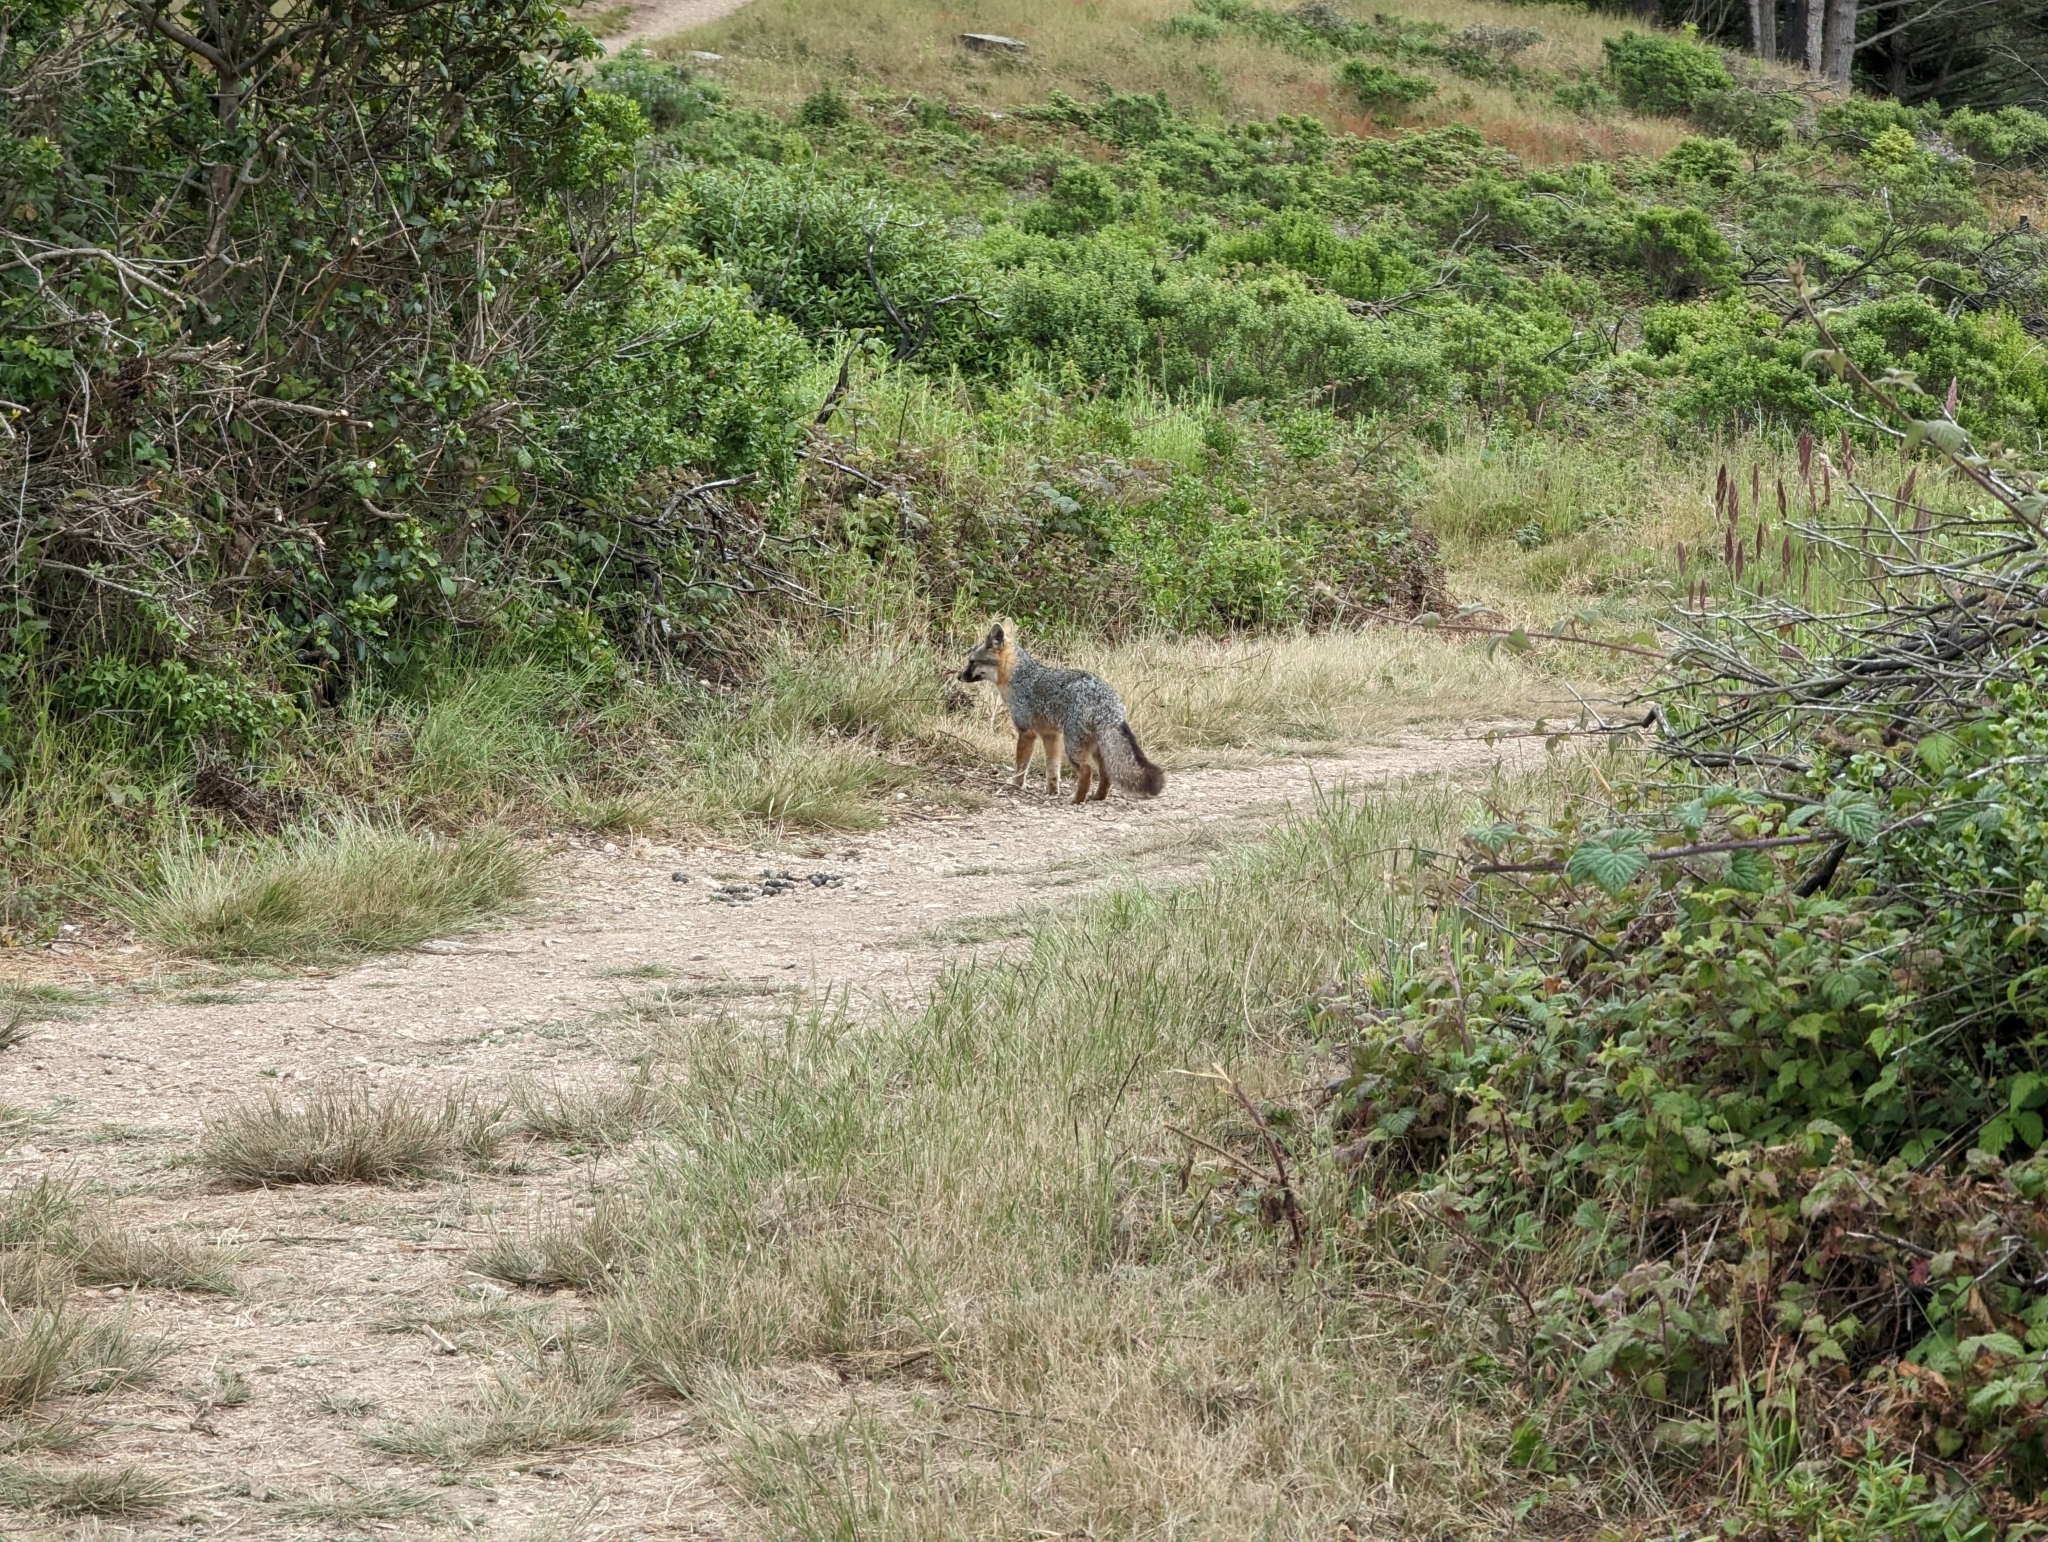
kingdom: Animalia
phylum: Chordata
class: Mammalia
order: Carnivora
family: Canidae
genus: Urocyon
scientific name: Urocyon cinereoargenteus
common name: Gray fox
